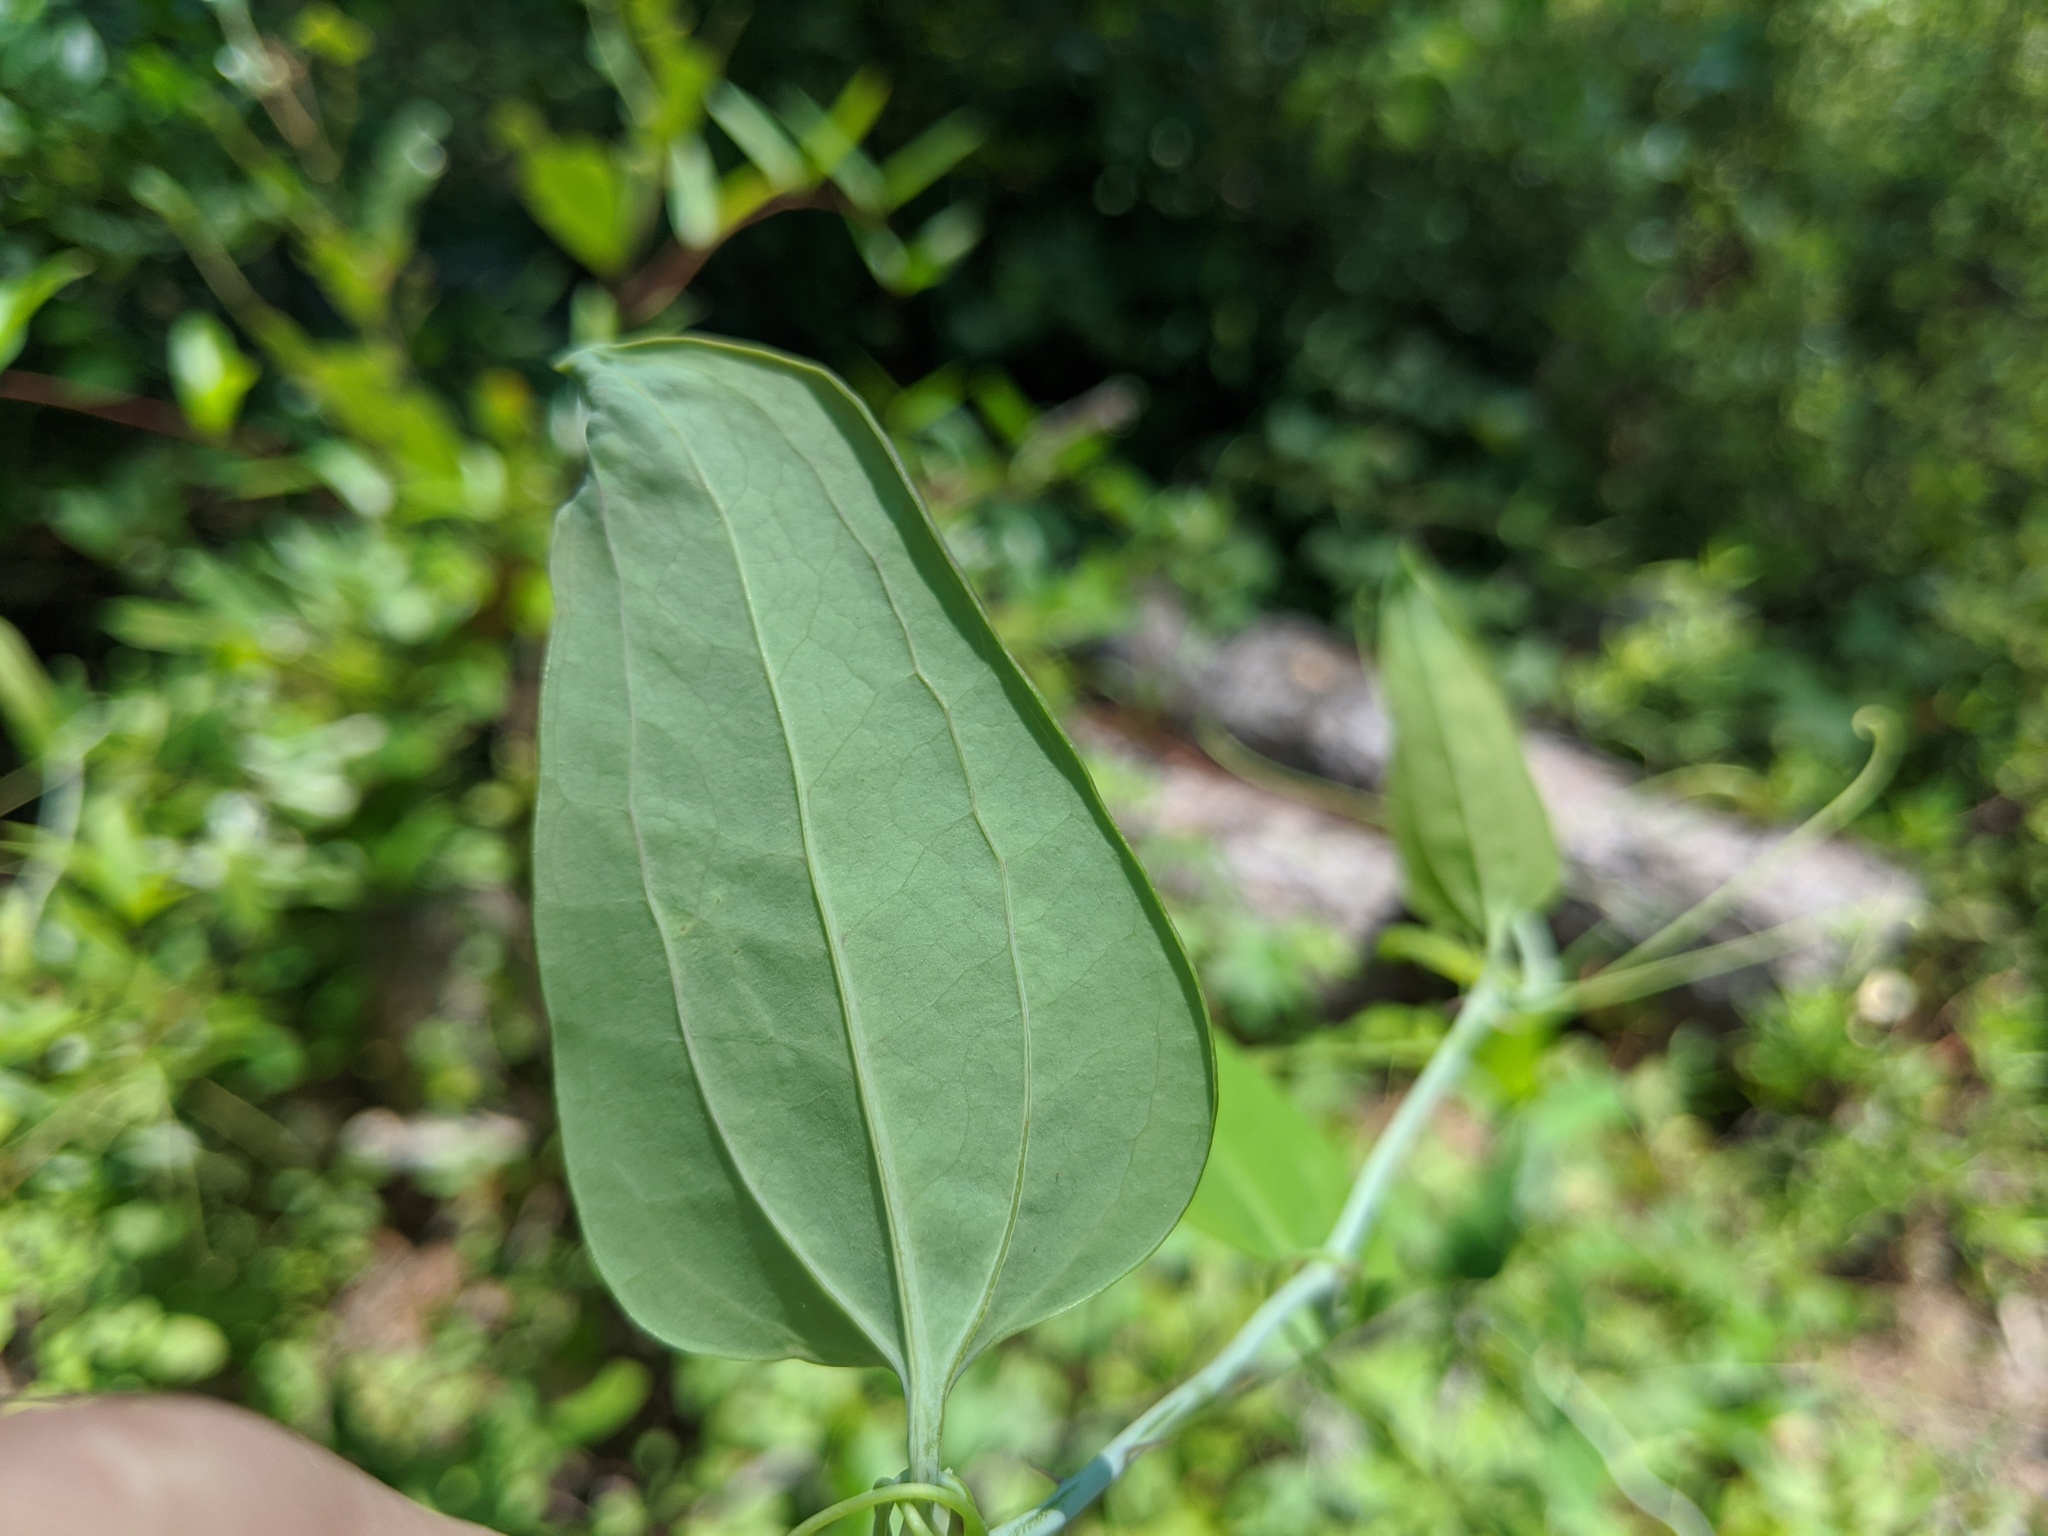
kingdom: Plantae
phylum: Tracheophyta
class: Liliopsida
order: Liliales
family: Smilacaceae
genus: Smilax
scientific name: Smilax glauca
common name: Cat greenbrier
